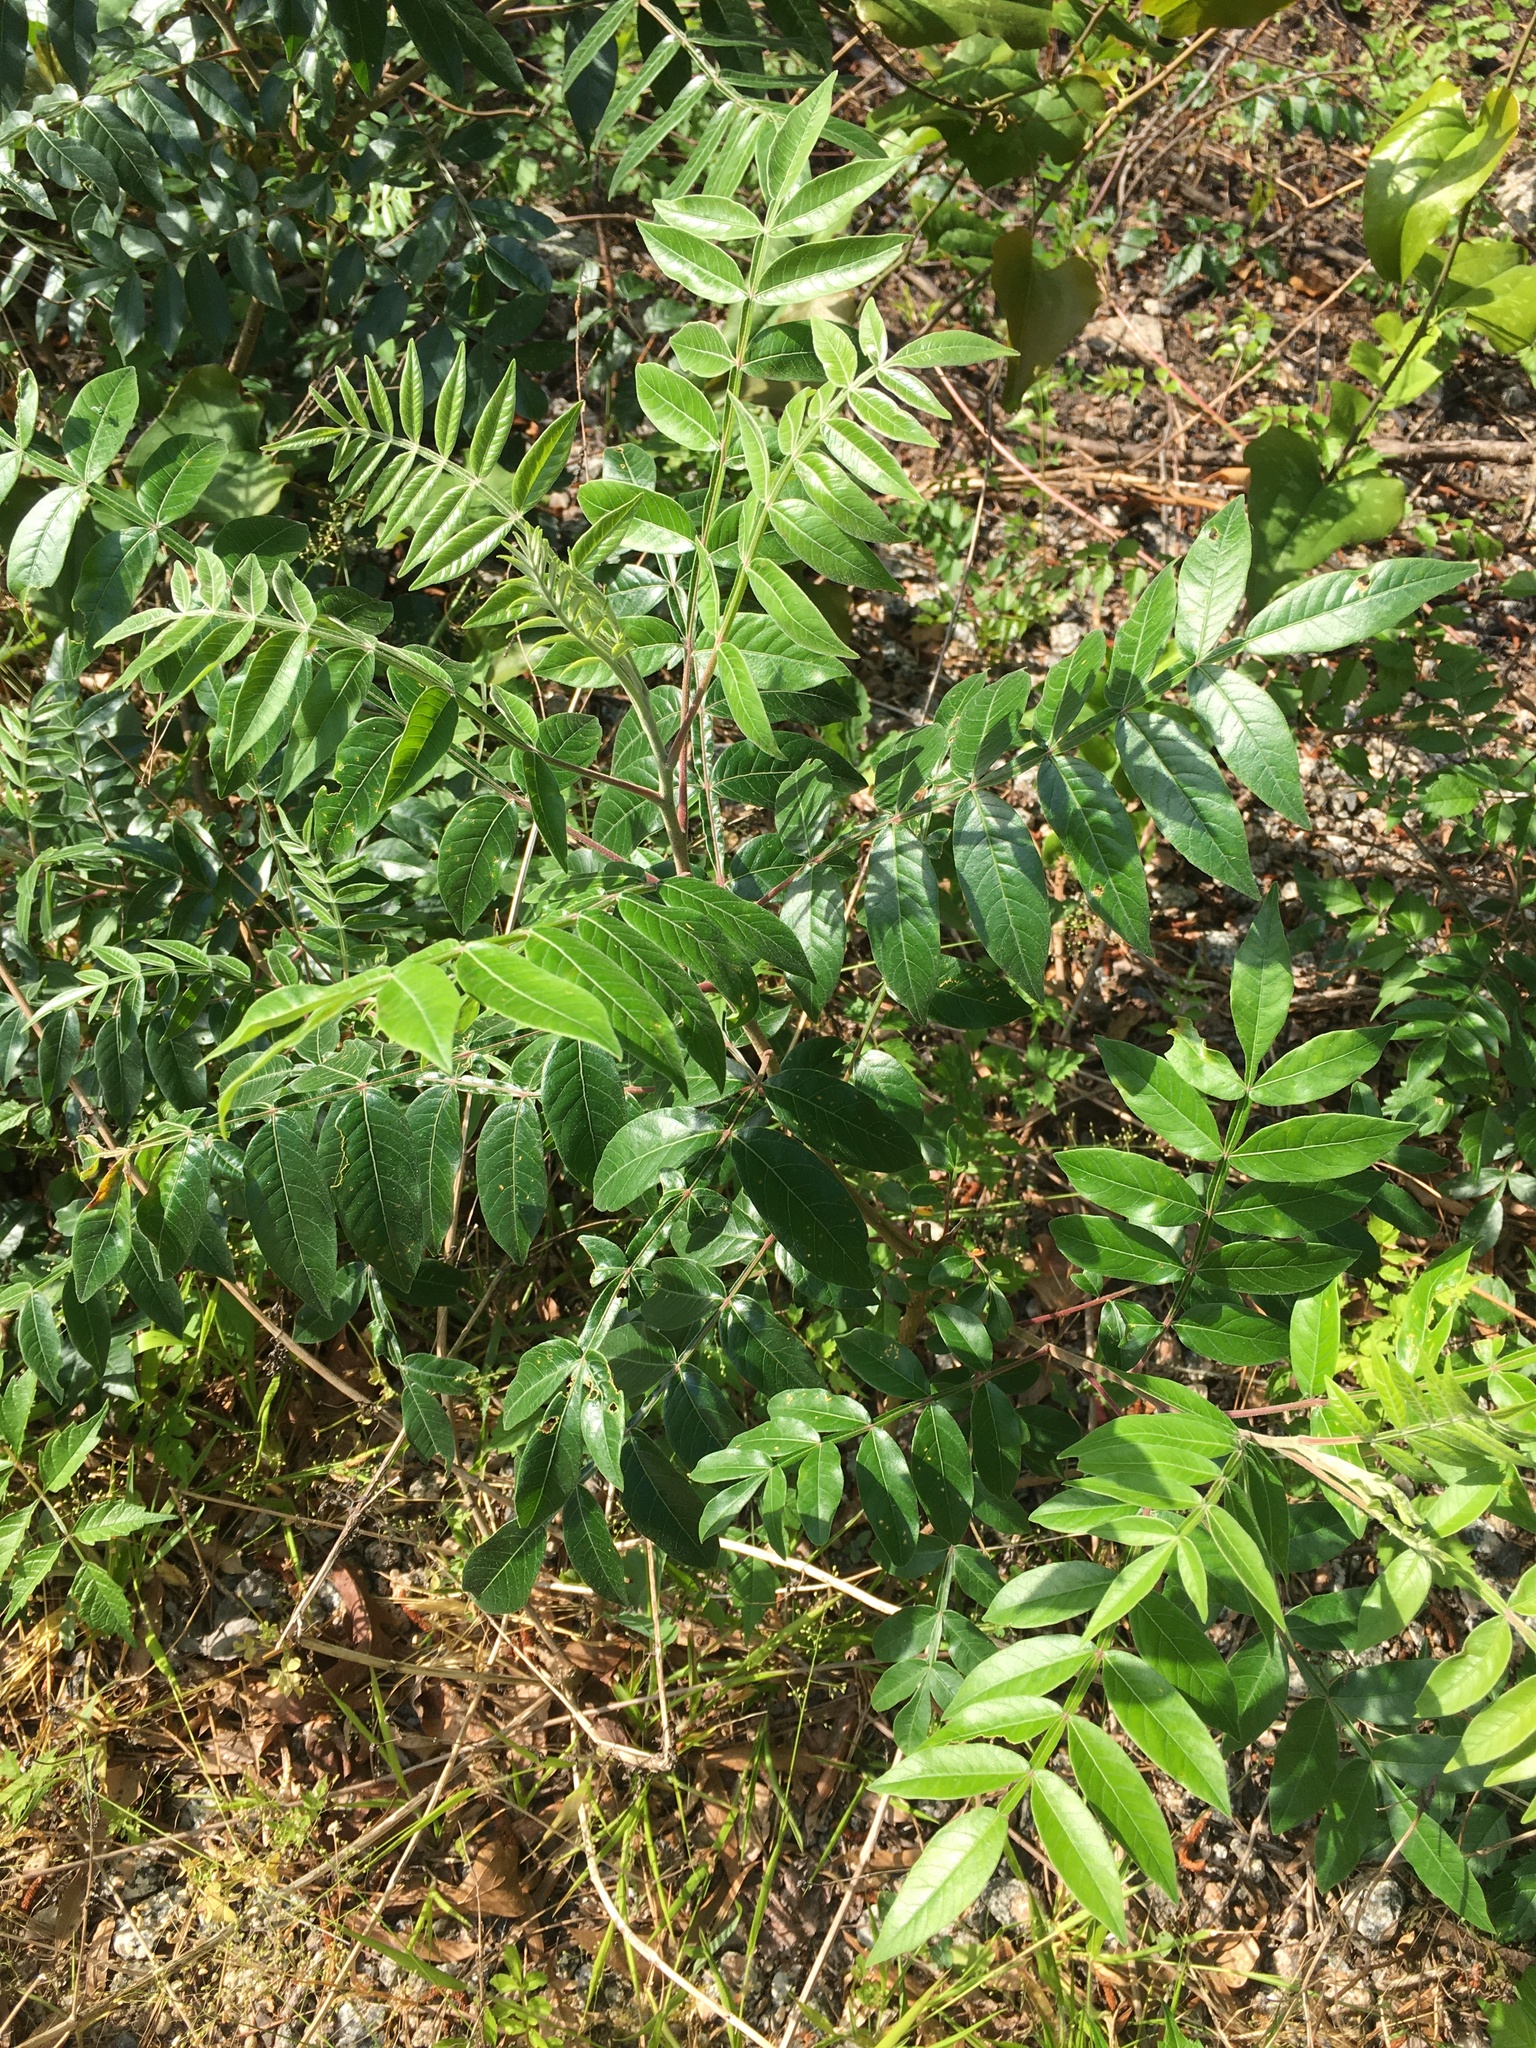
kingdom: Plantae
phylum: Tracheophyta
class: Magnoliopsida
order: Sapindales
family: Anacardiaceae
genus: Rhus
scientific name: Rhus copallina
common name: Shining sumac
